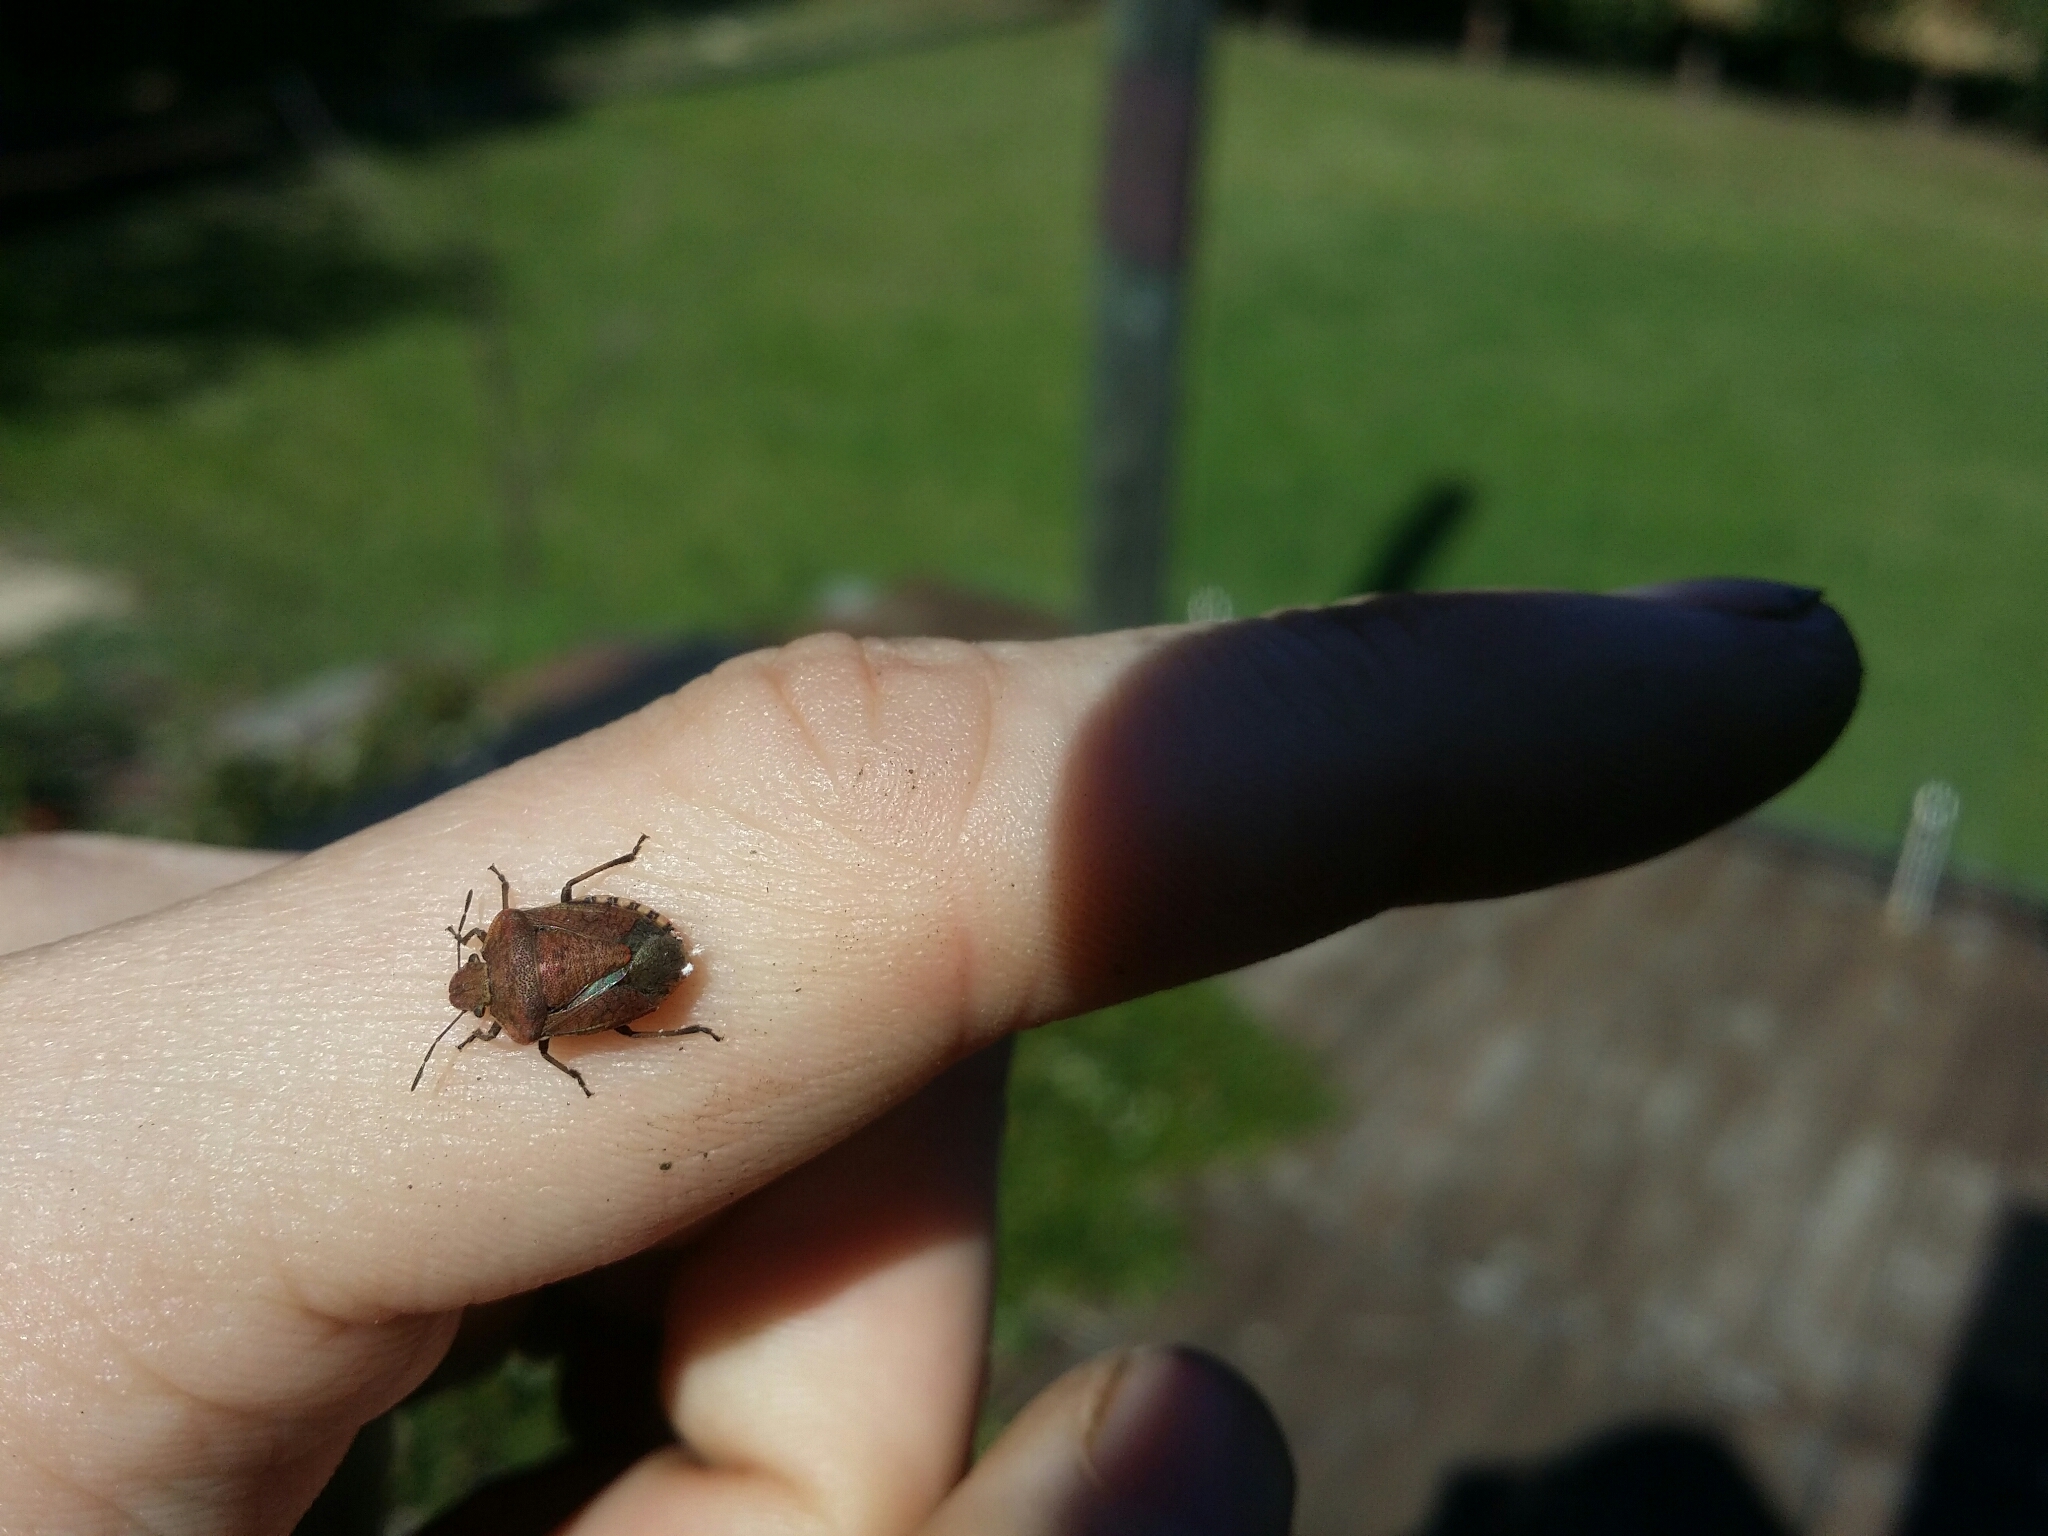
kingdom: Animalia
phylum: Arthropoda
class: Insecta
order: Hemiptera
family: Pentatomidae
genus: Dictyotus
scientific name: Dictyotus caenosus
